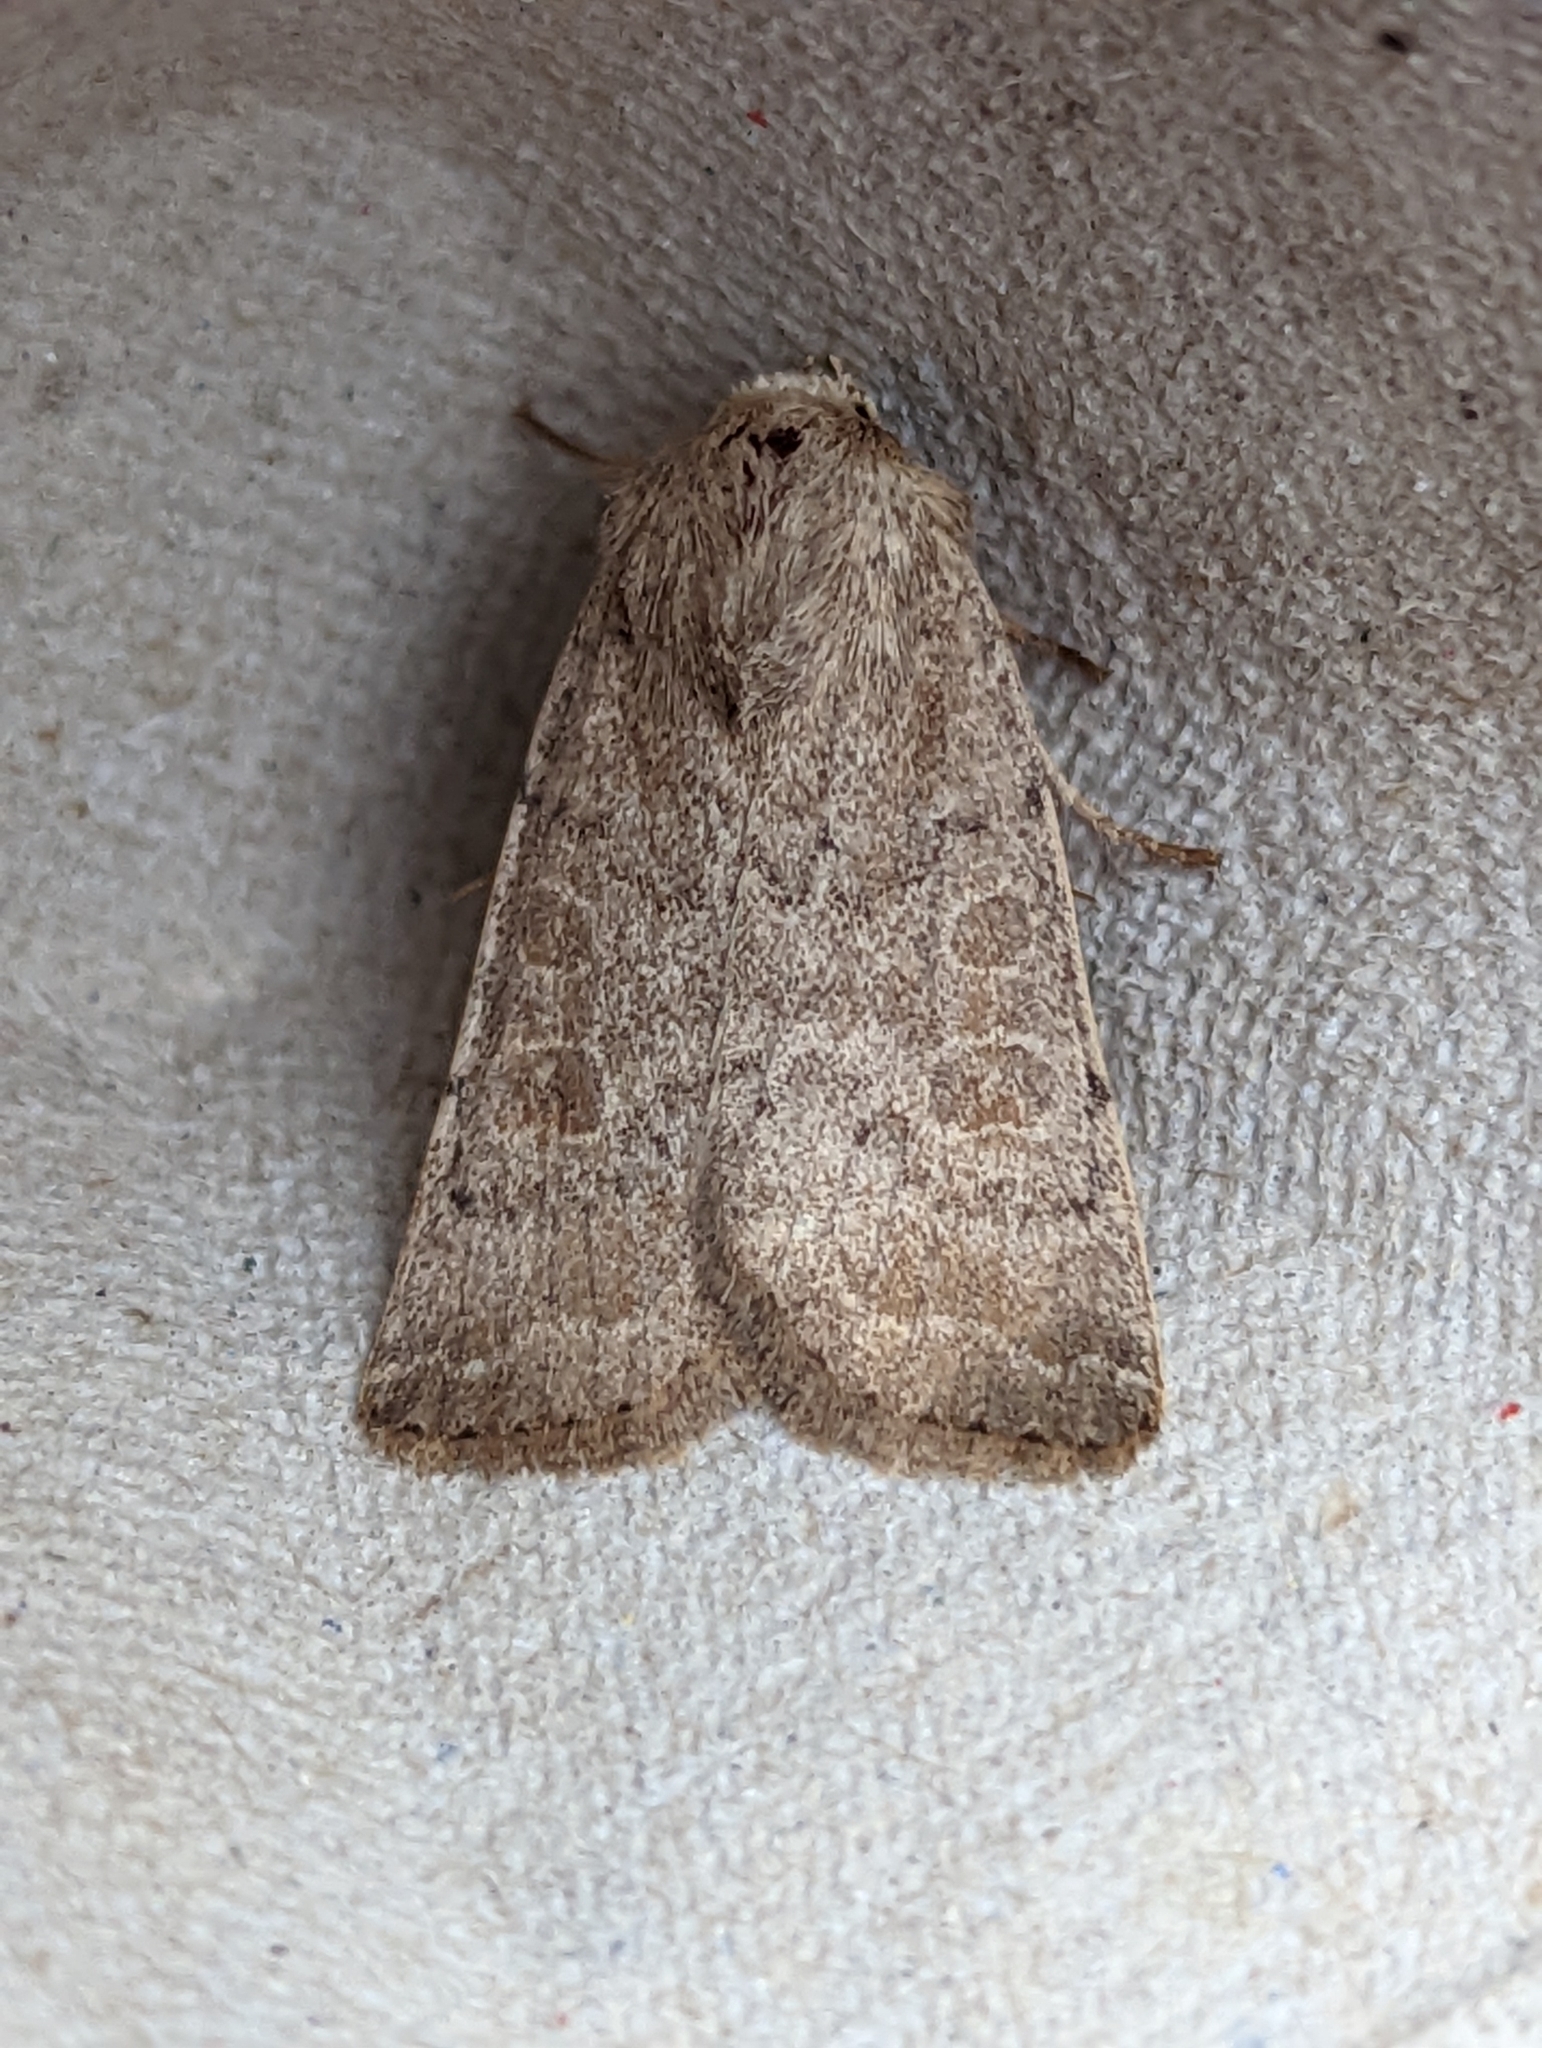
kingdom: Animalia
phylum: Arthropoda
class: Insecta
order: Lepidoptera
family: Noctuidae
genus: Hoplodrina
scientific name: Hoplodrina ambigua
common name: Vine's rustic
